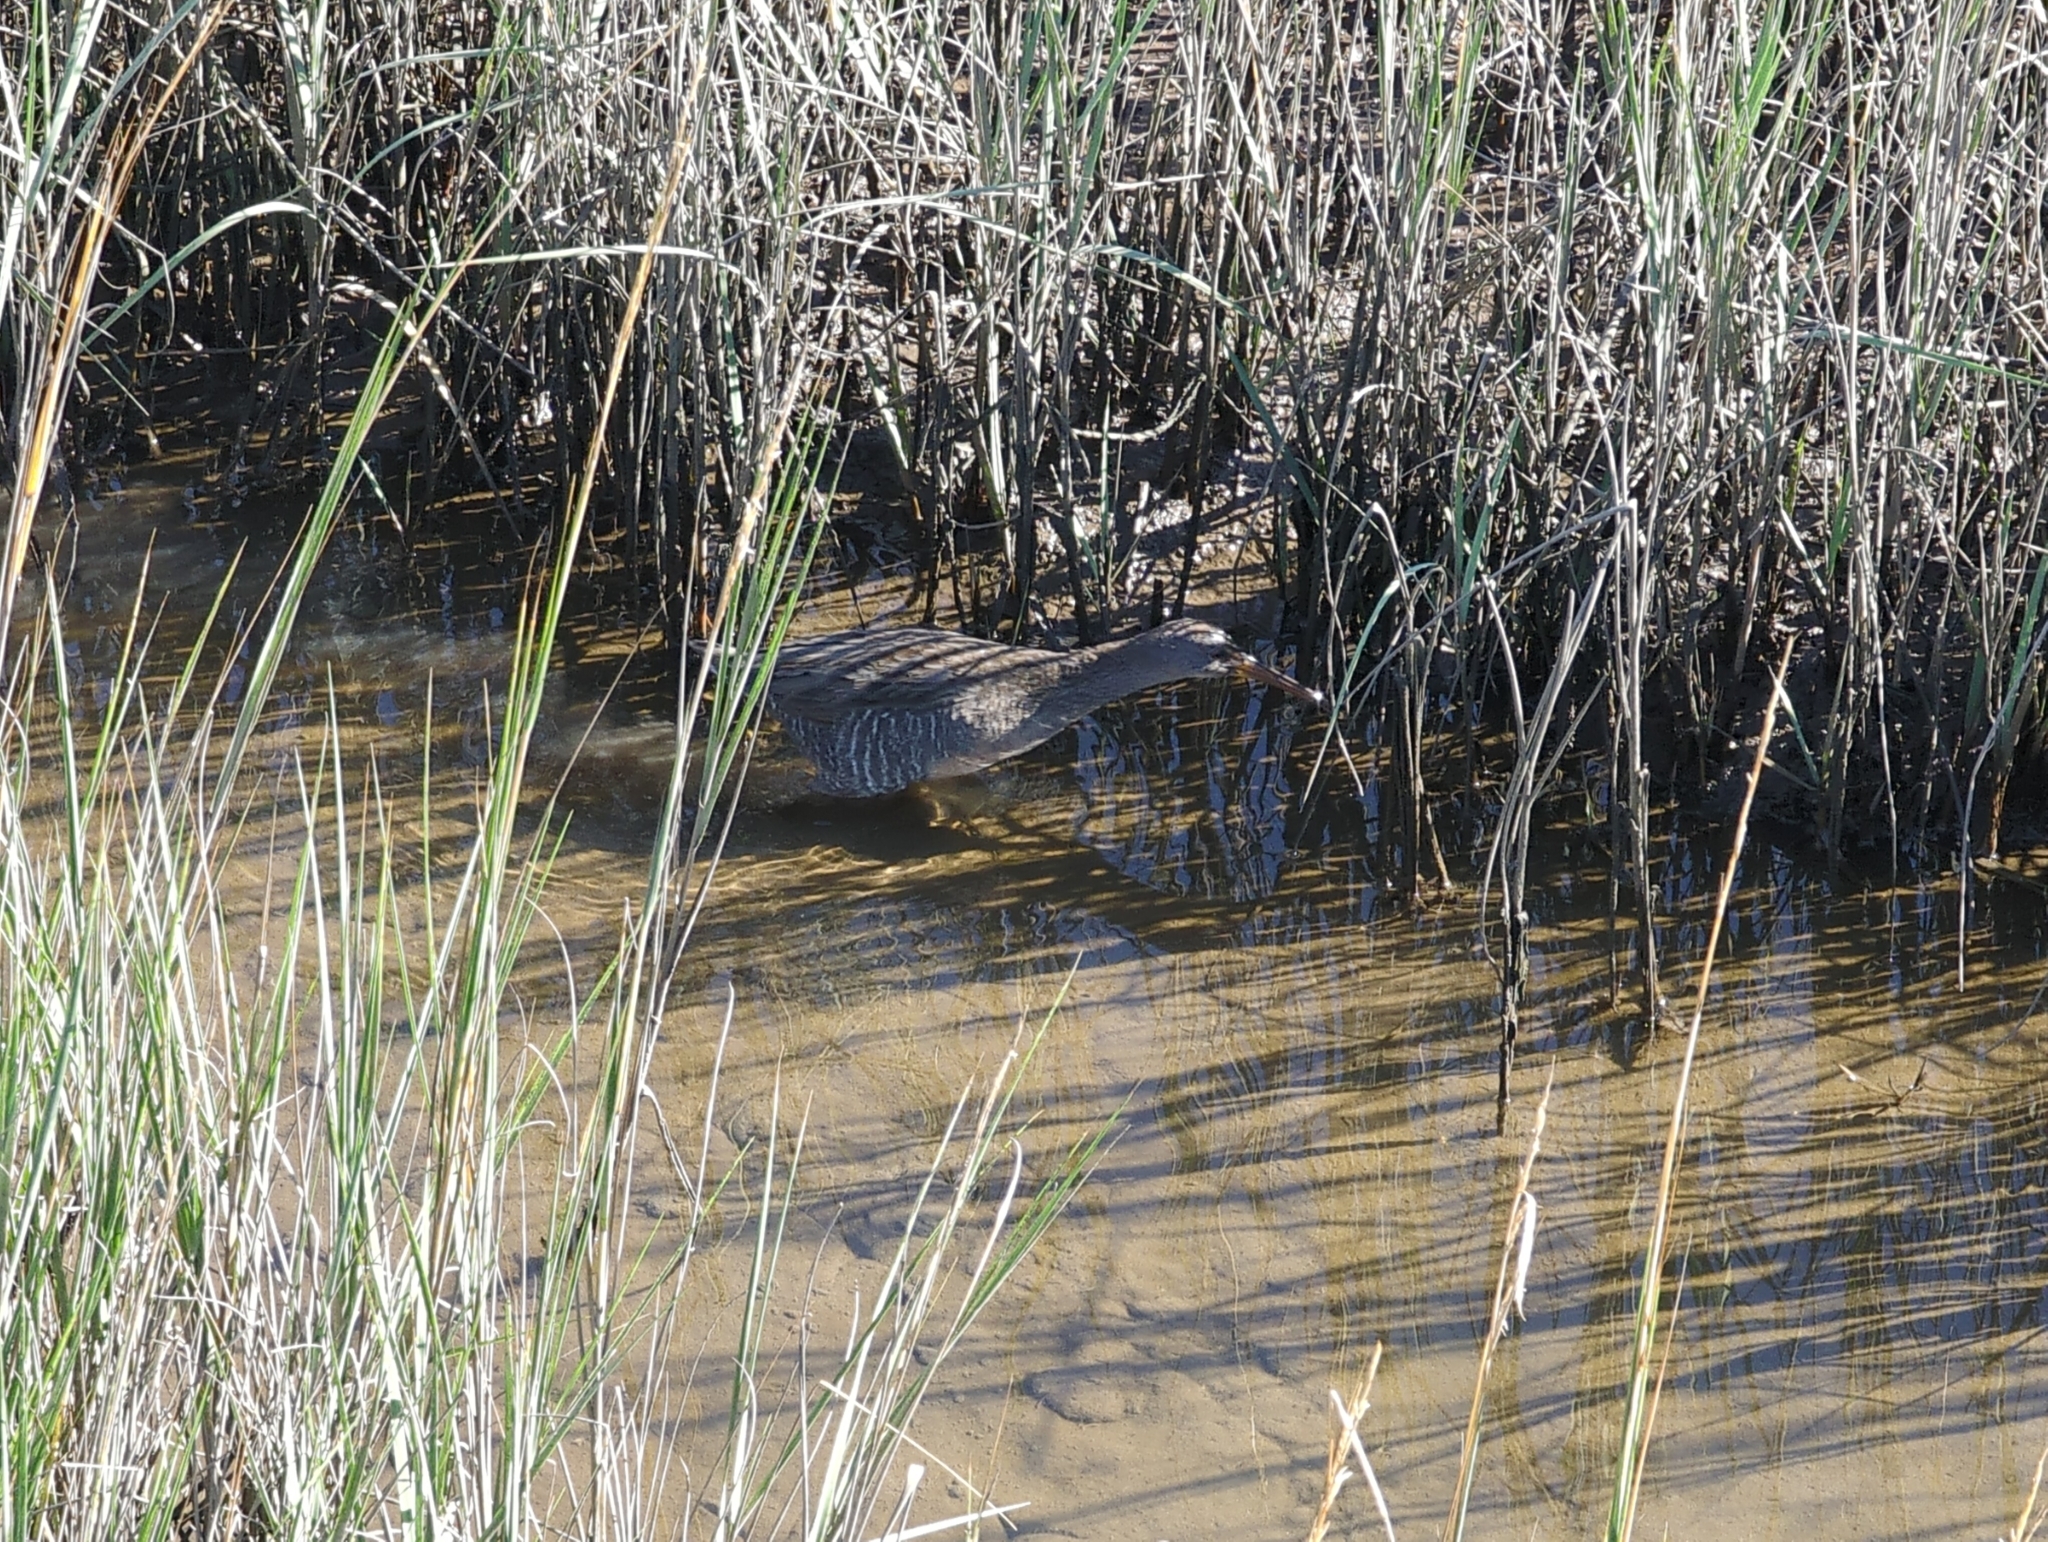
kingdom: Animalia
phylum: Chordata
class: Aves
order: Gruiformes
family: Rallidae
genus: Rallus
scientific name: Rallus crepitans
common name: Clapper rail
